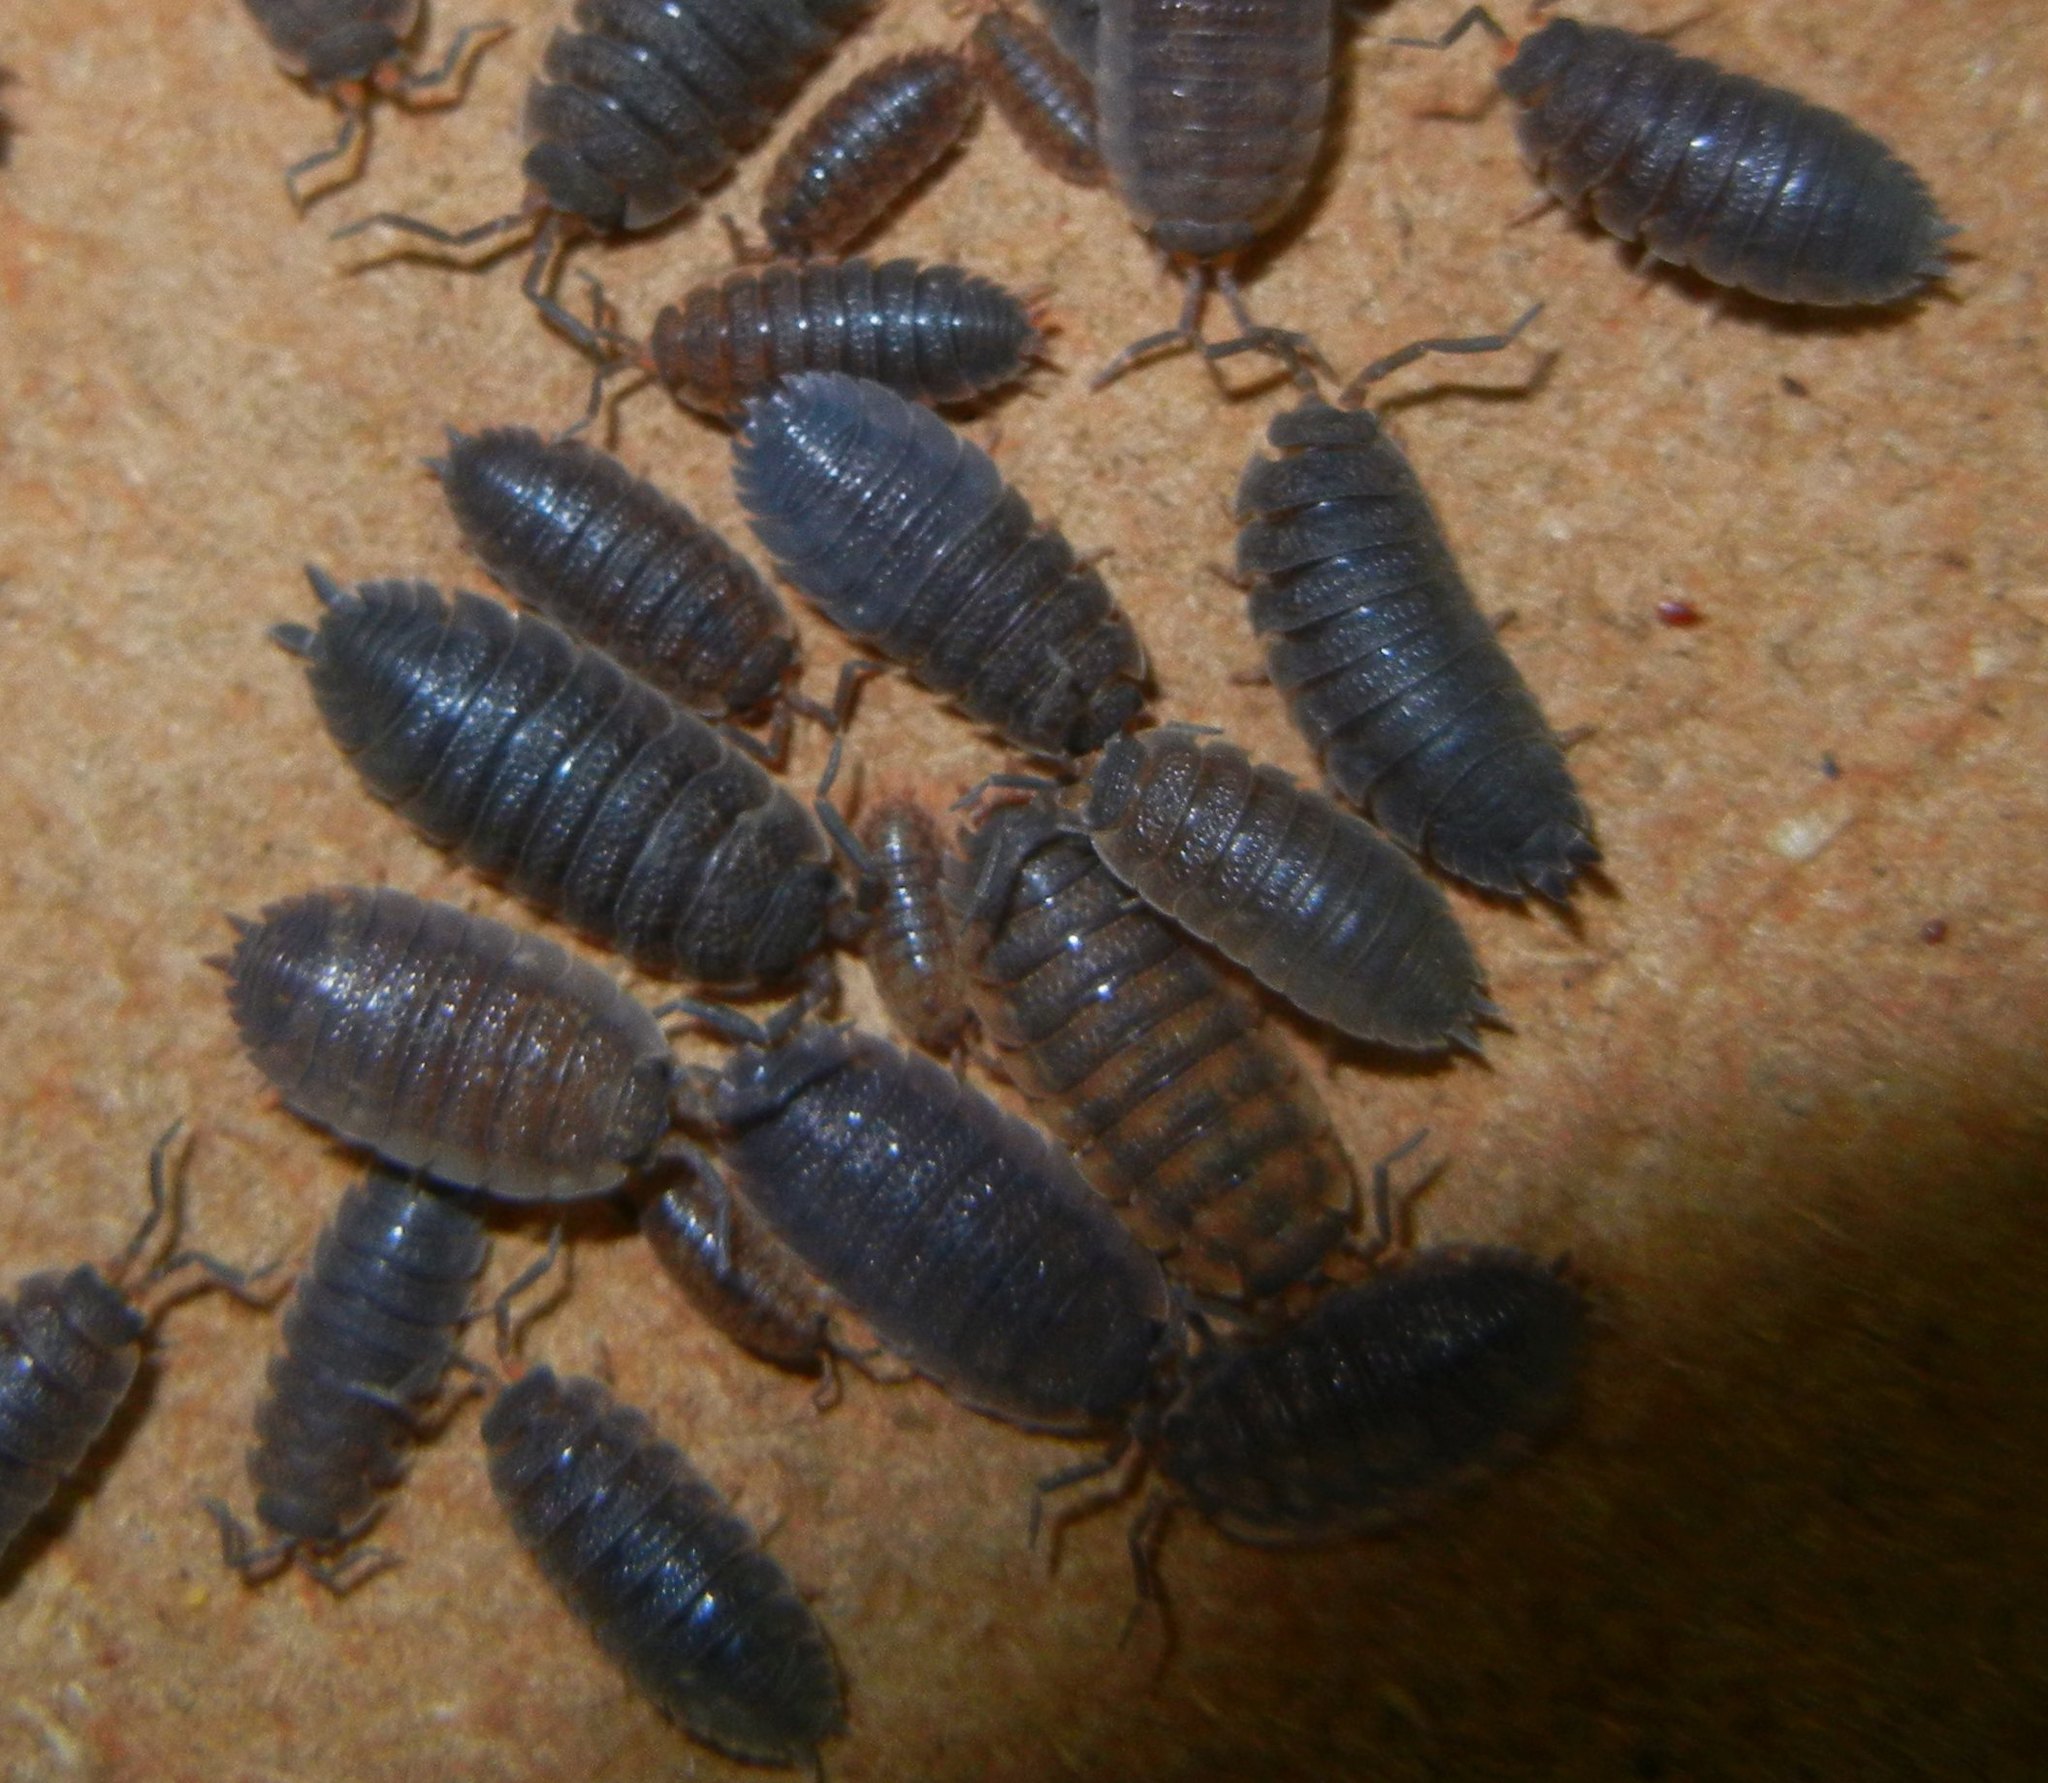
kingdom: Animalia
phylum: Arthropoda
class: Malacostraca
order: Isopoda
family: Porcellionidae
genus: Porcellio
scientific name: Porcellio scaber
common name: Common rough woodlouse
